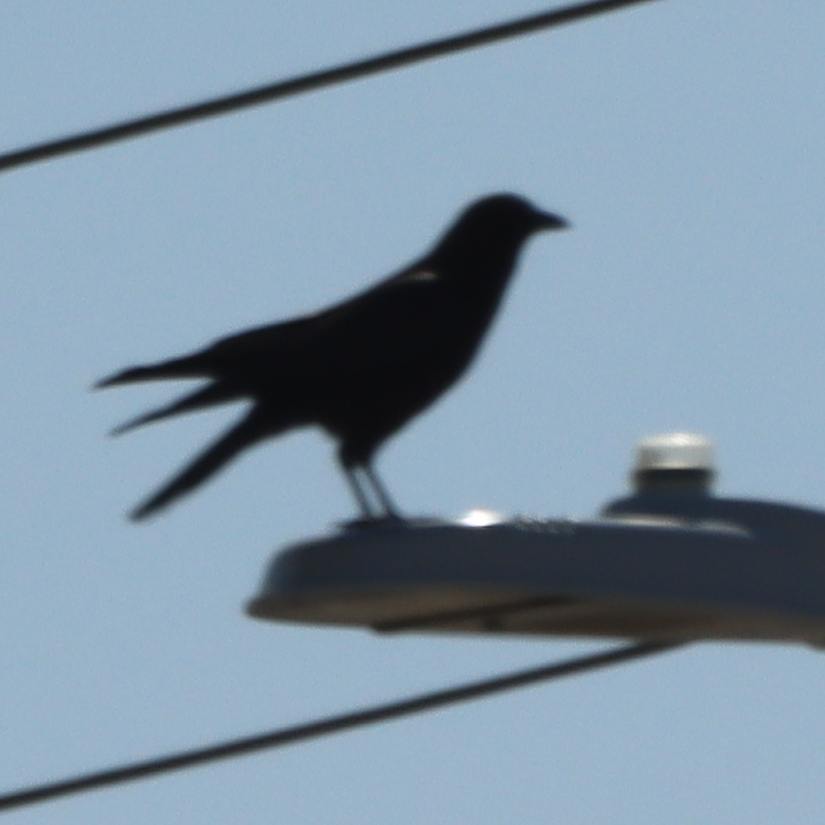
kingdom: Animalia
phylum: Chordata
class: Aves
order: Passeriformes
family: Corvidae
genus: Corvus
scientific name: Corvus brachyrhynchos
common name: American crow
